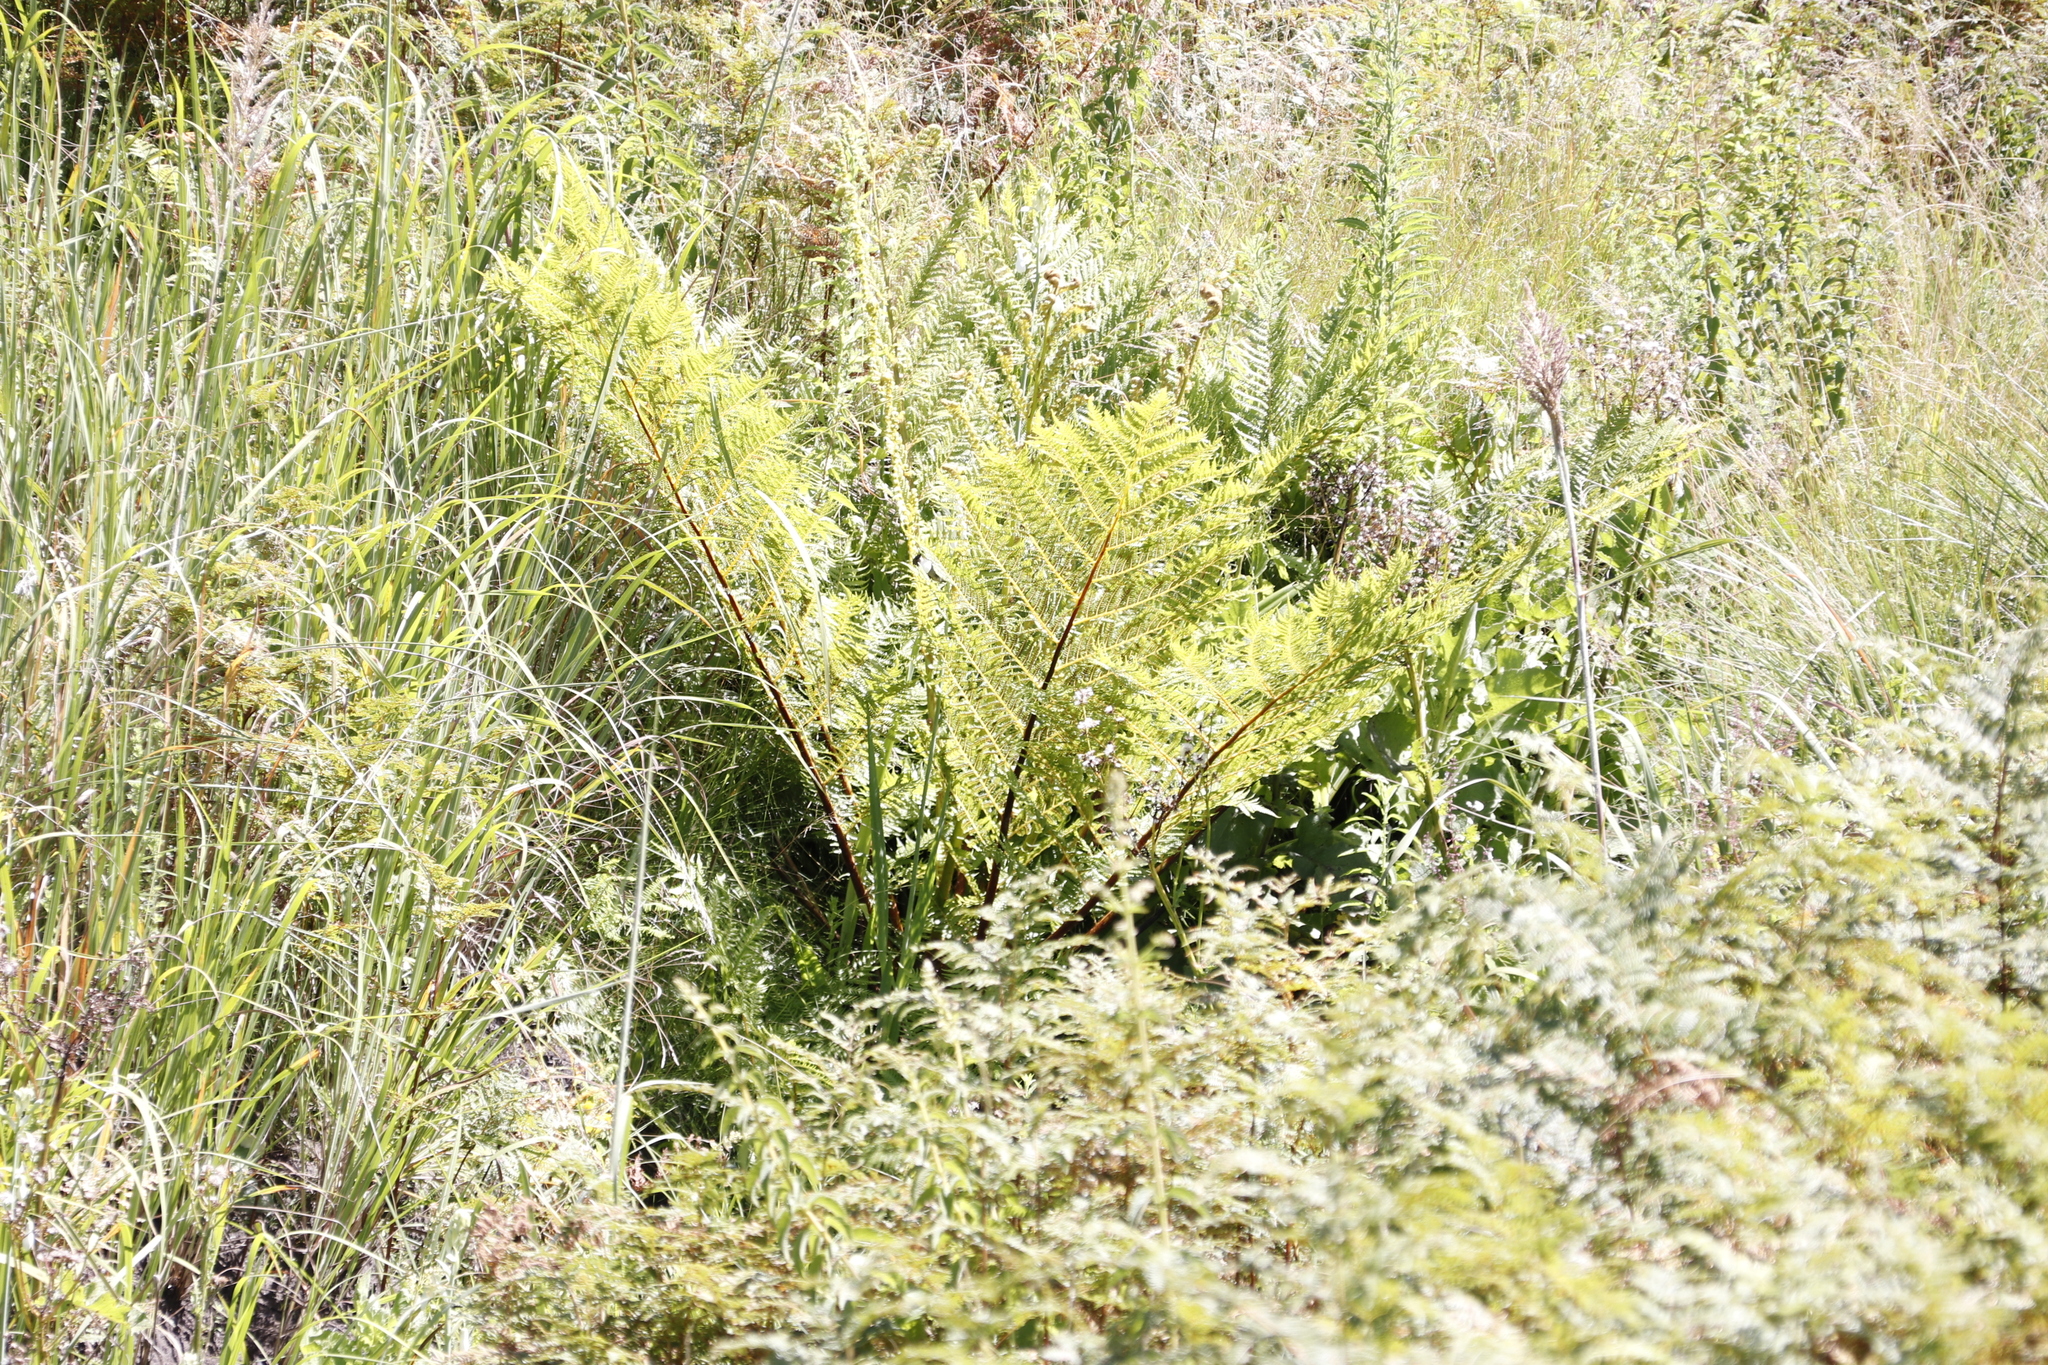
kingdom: Plantae
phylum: Tracheophyta
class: Polypodiopsida
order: Cyatheales
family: Cyatheaceae
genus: Alsophila
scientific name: Alsophila dregei
